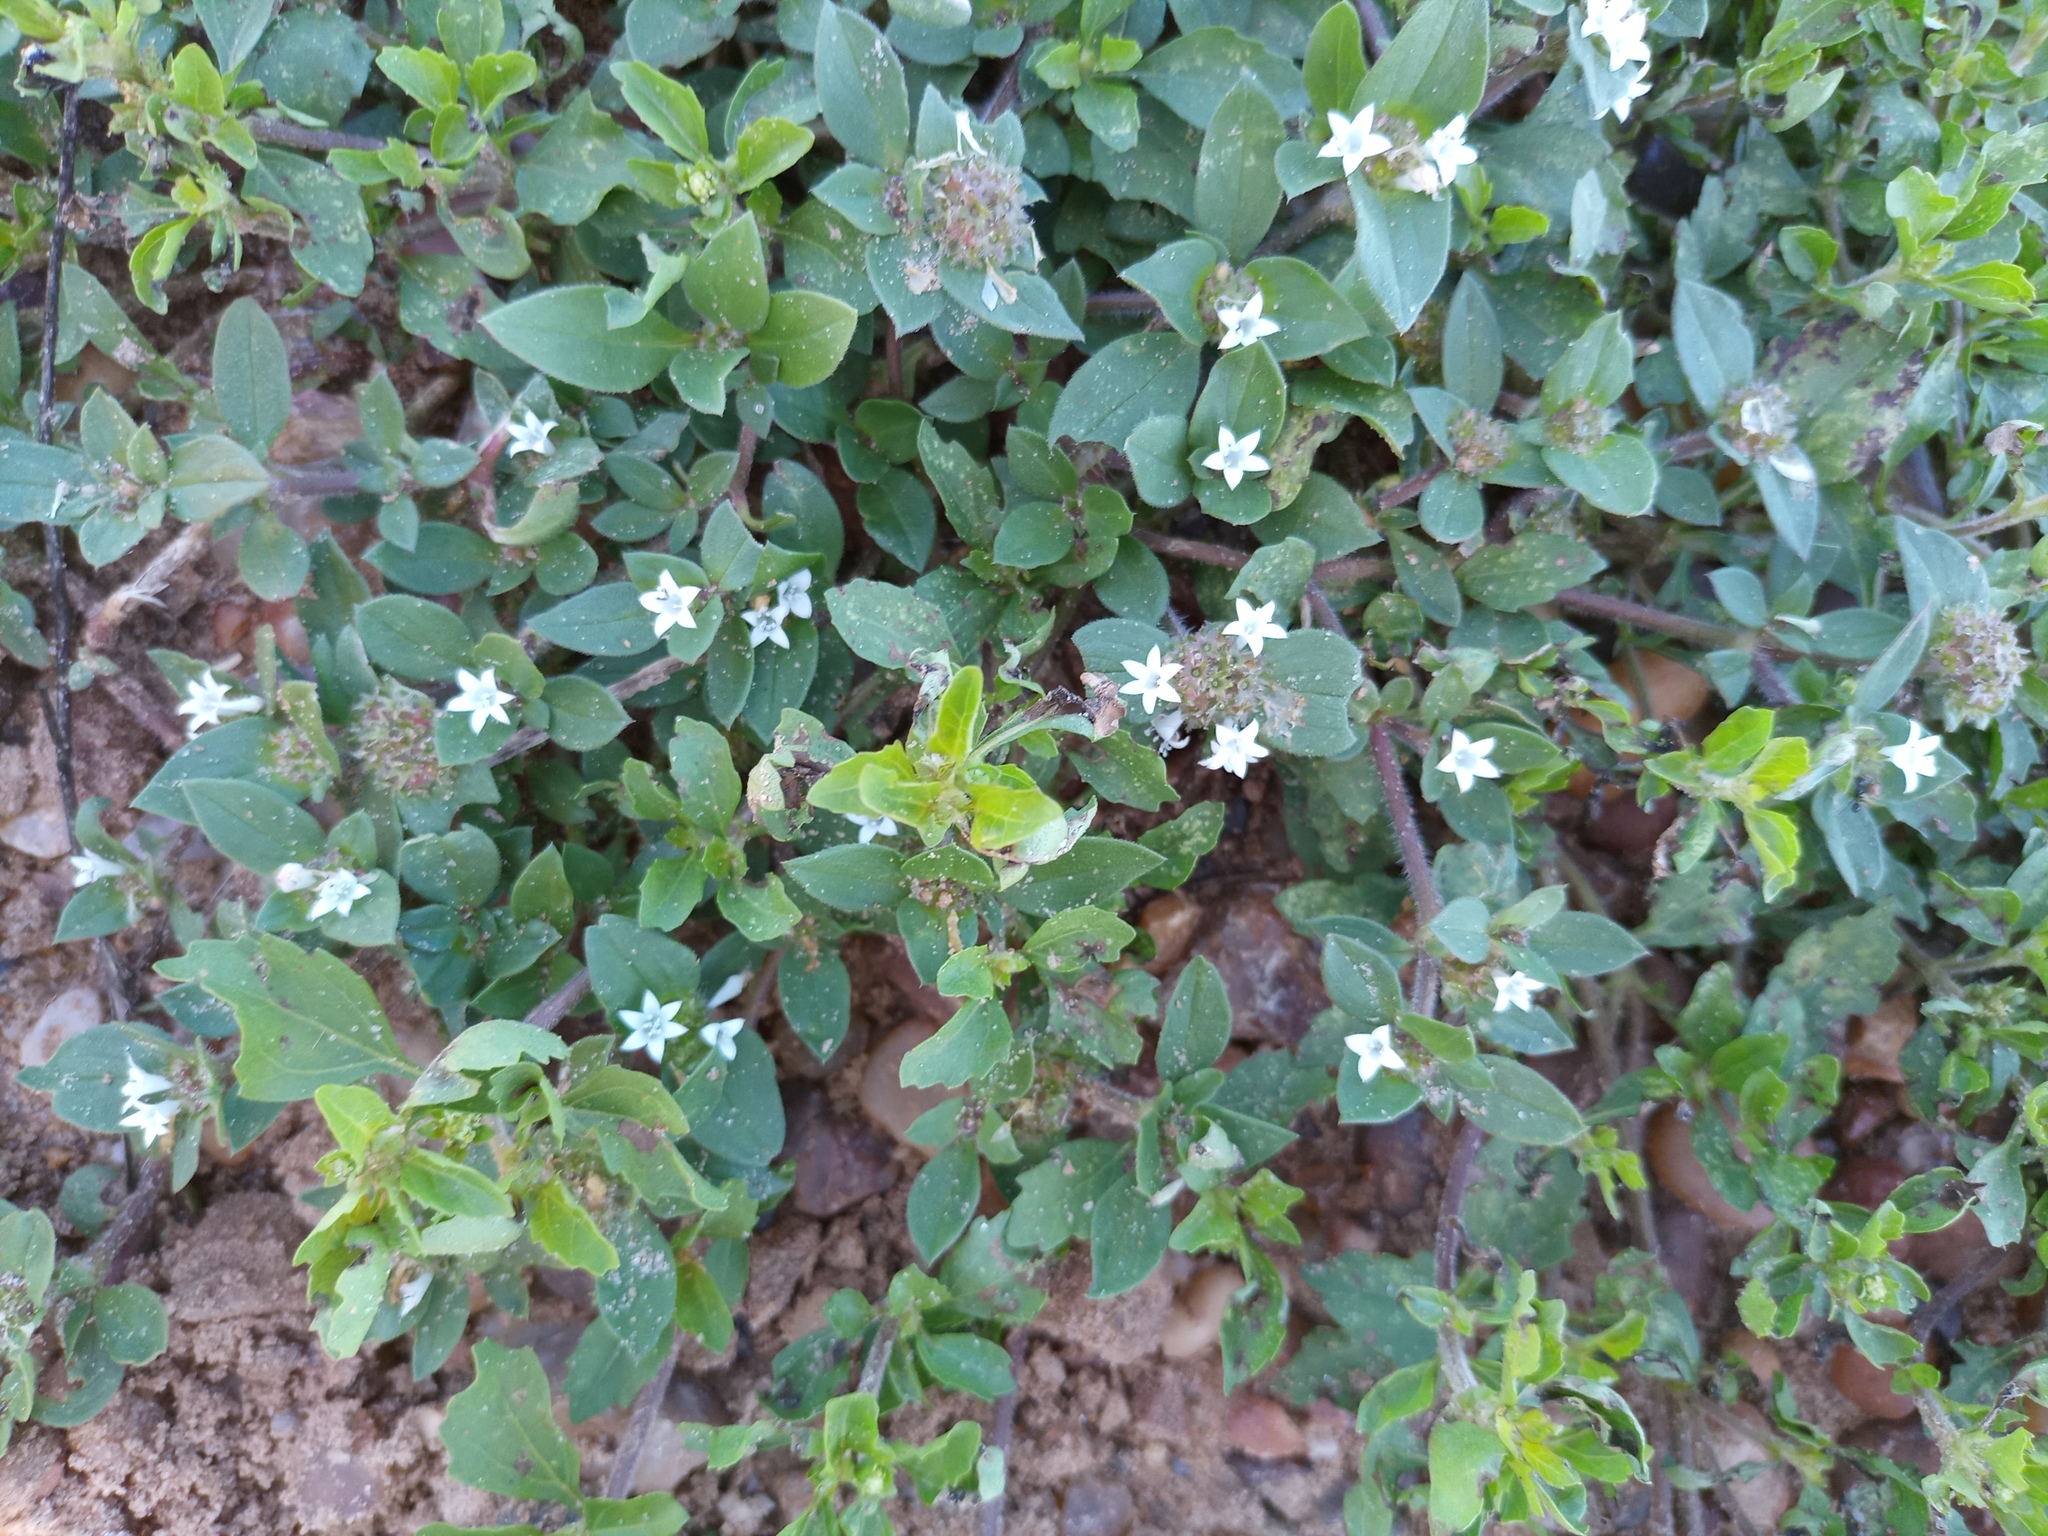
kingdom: Plantae
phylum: Tracheophyta
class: Magnoliopsida
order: Gentianales
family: Rubiaceae
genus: Richardia
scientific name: Richardia brasiliensis
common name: Tropical mexican clover
